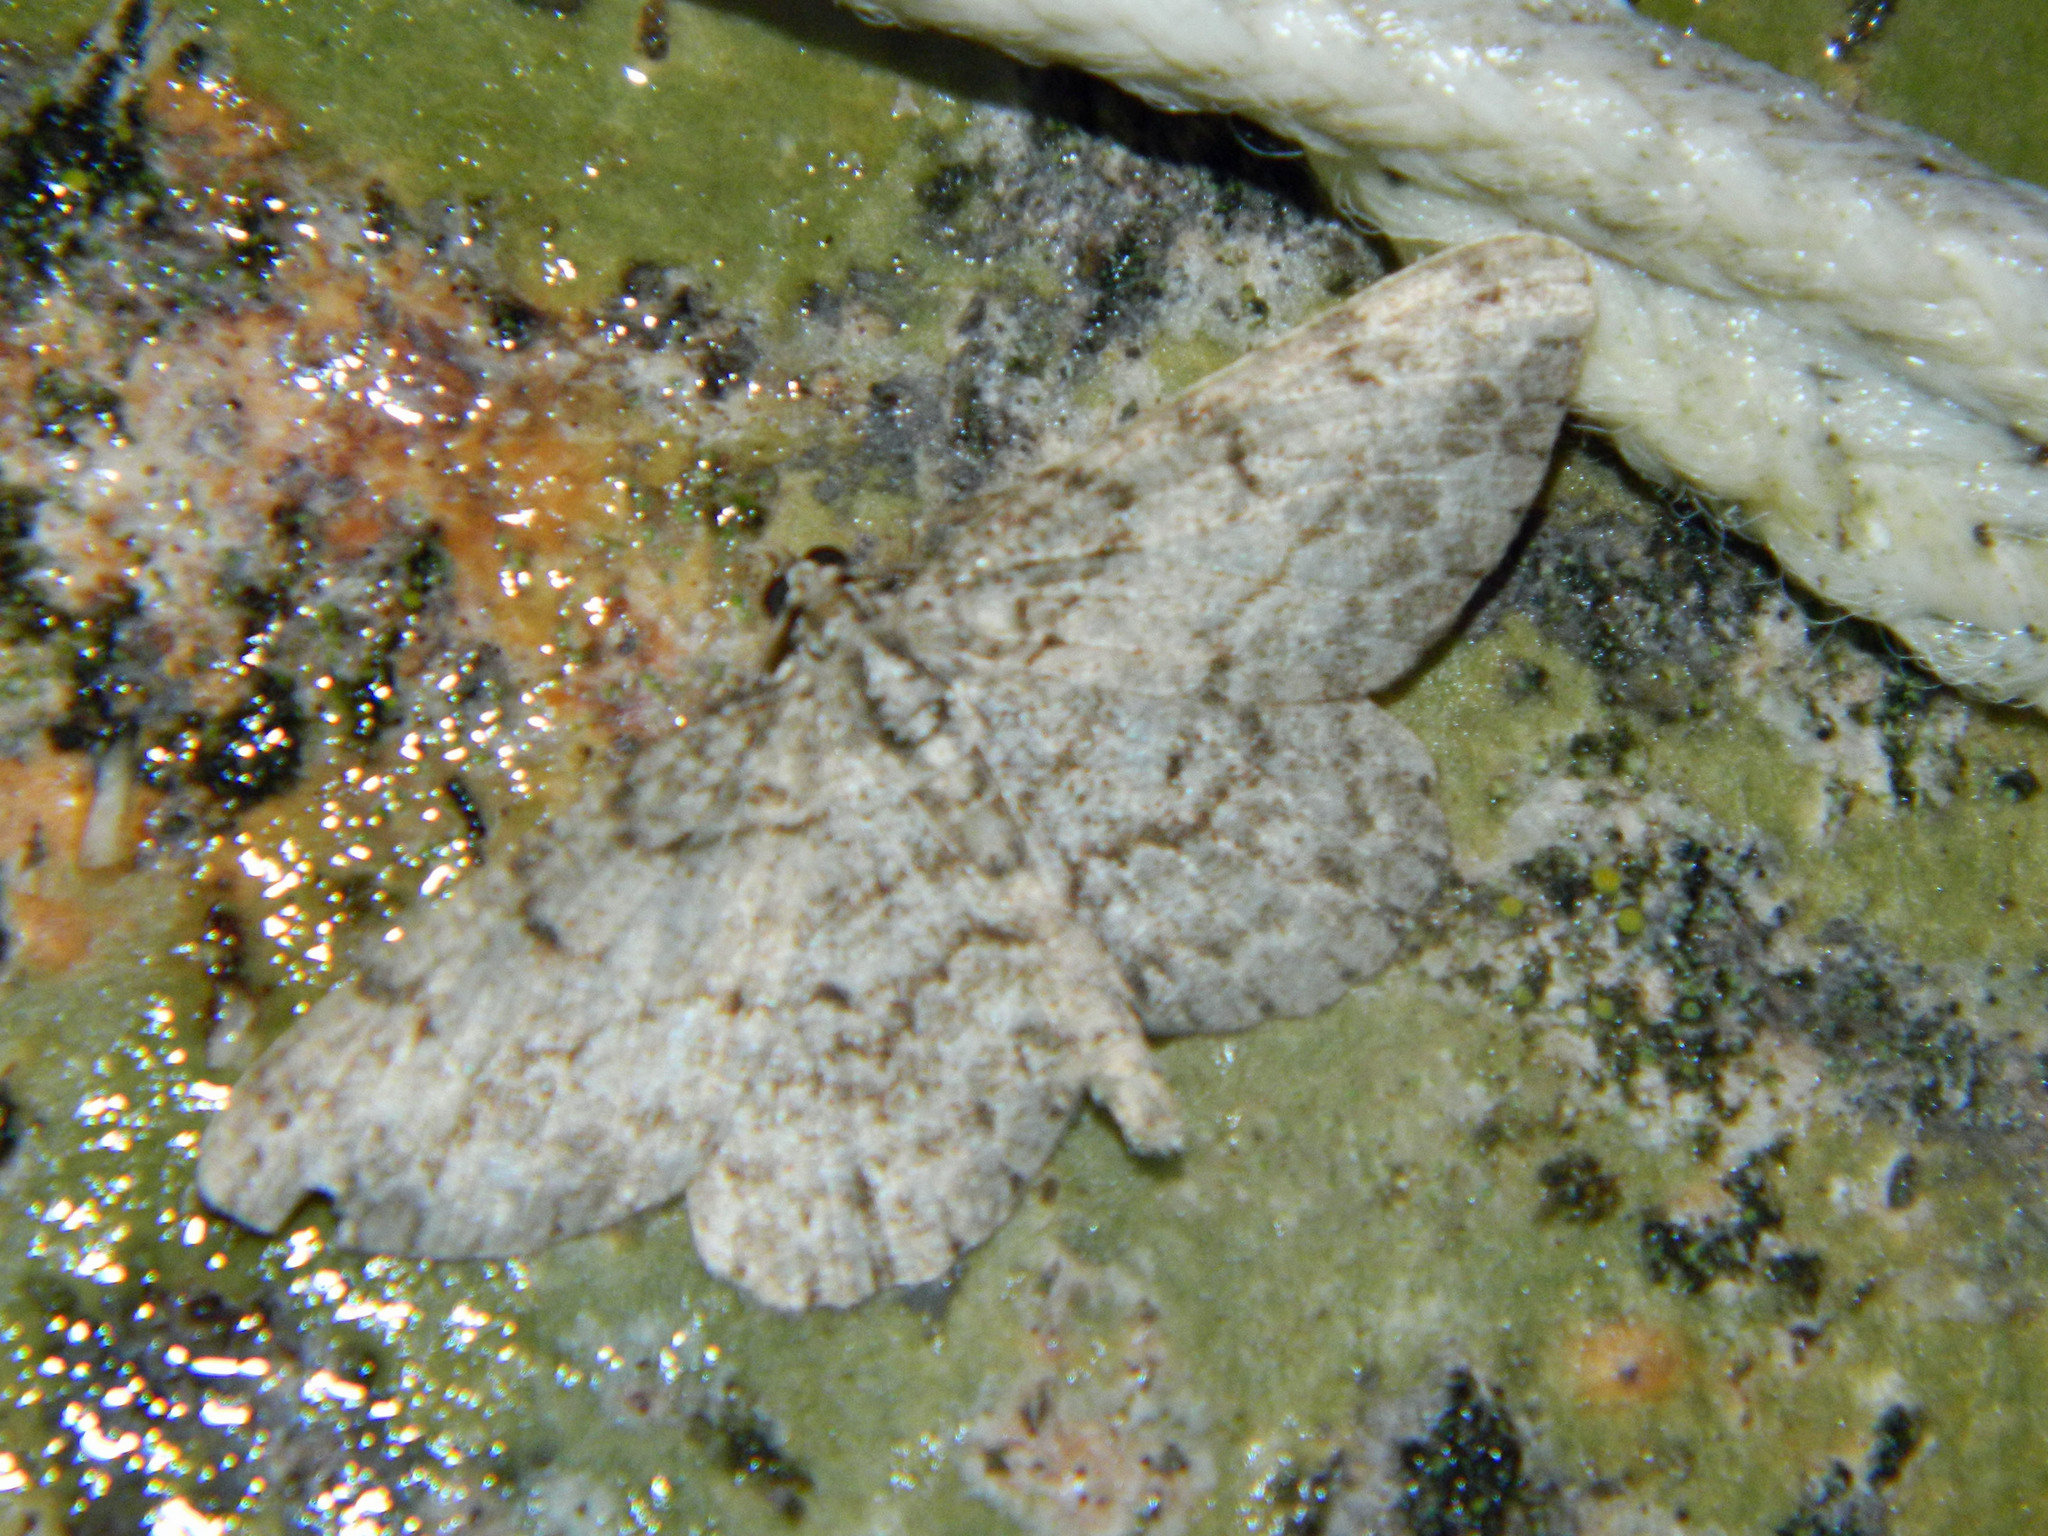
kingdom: Animalia
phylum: Arthropoda
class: Insecta
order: Lepidoptera
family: Geometridae
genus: Protoboarmia
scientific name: Protoboarmia porcelaria
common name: Porcelain gray
